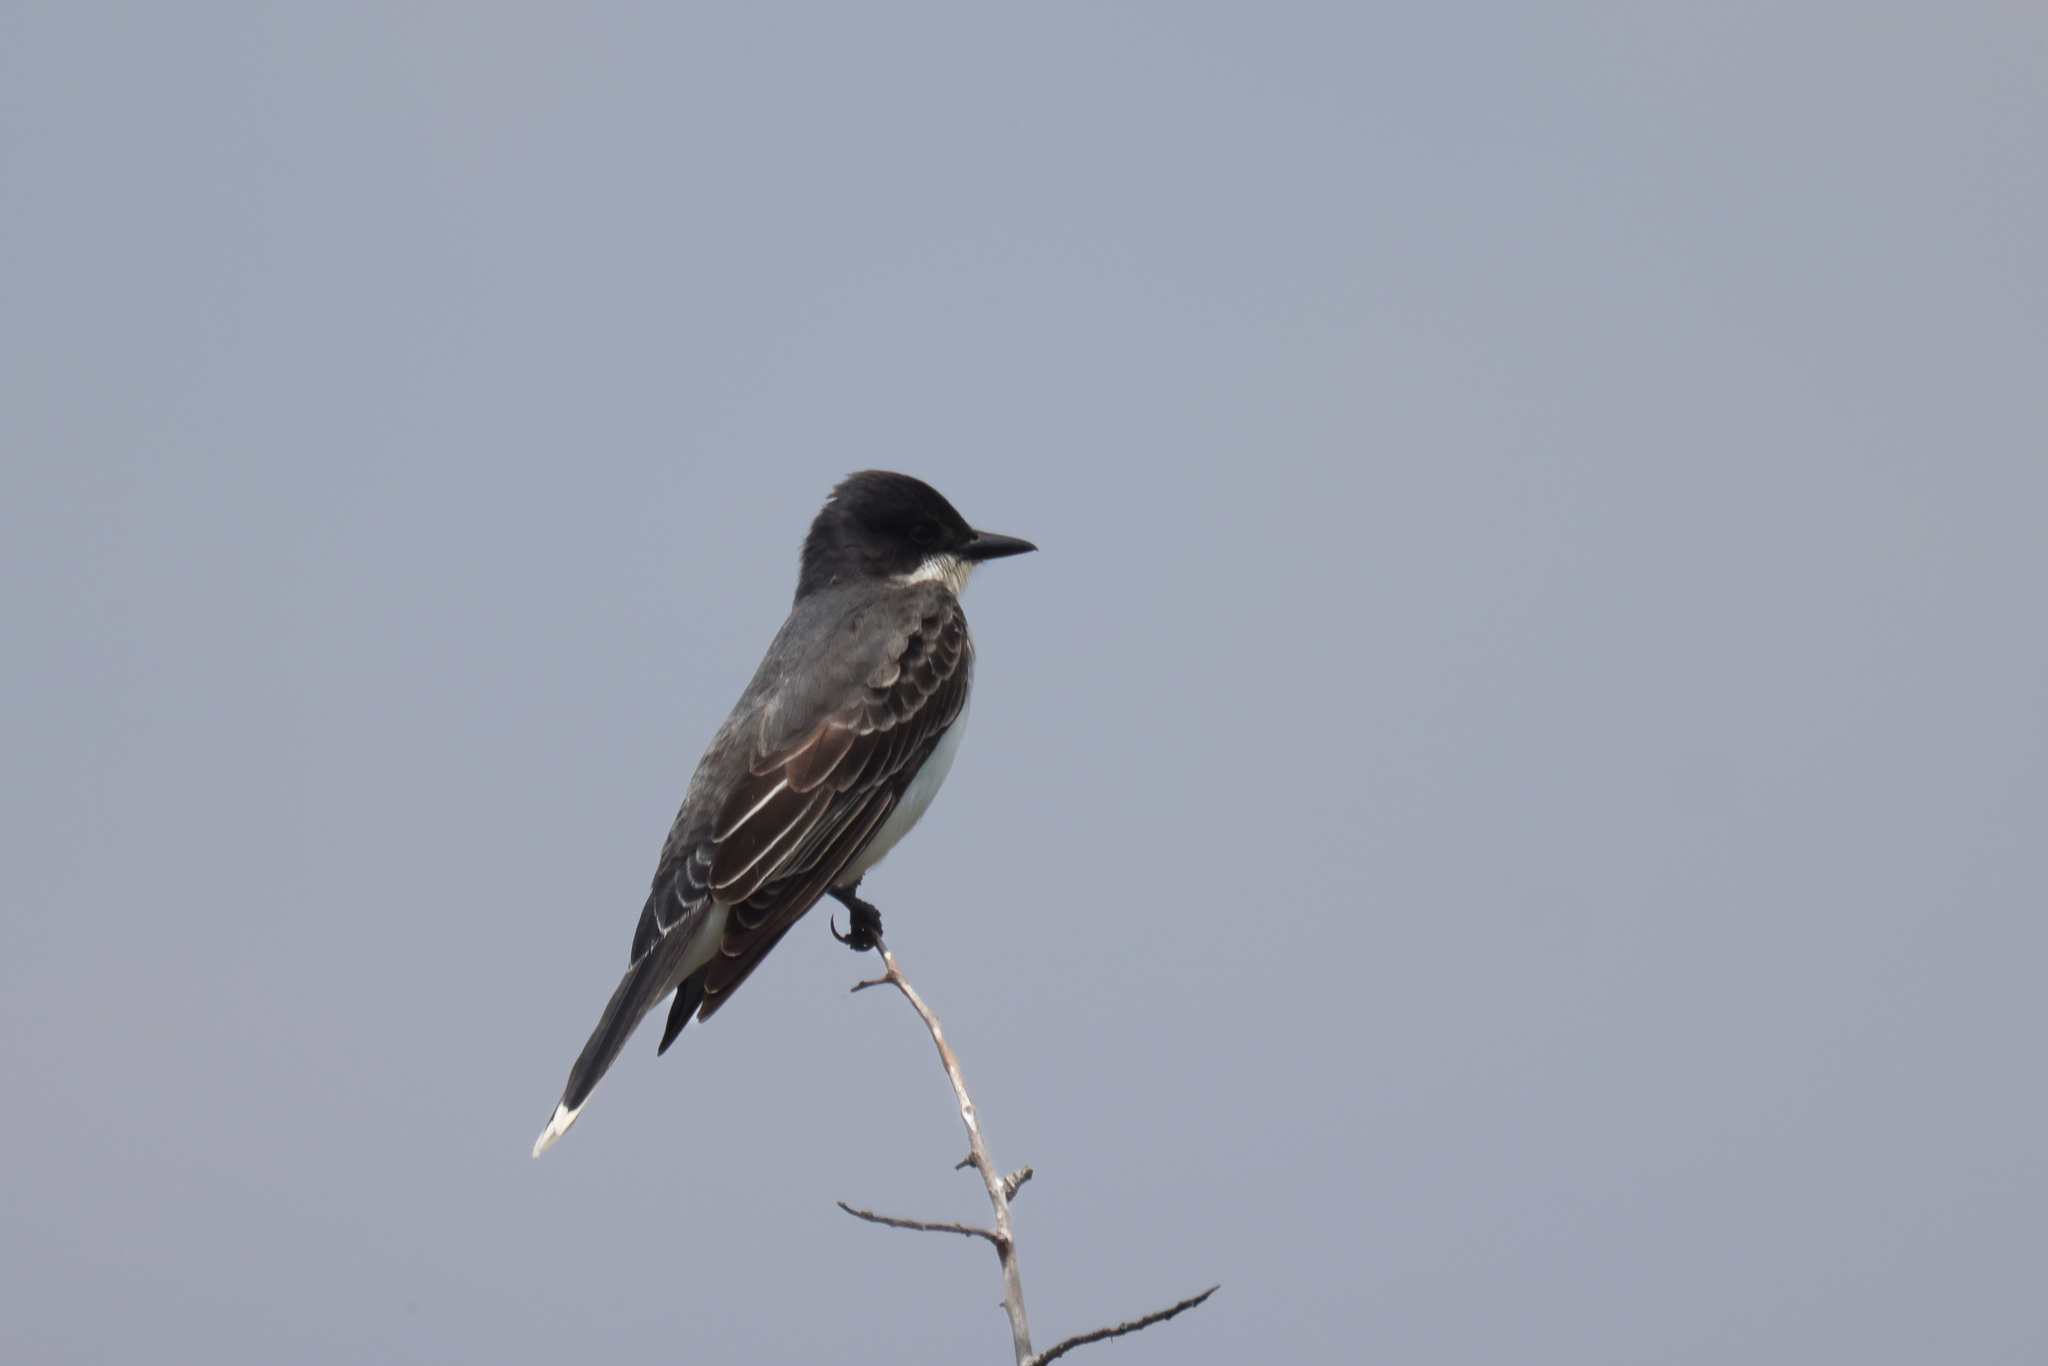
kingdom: Animalia
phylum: Chordata
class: Aves
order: Passeriformes
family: Tyrannidae
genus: Tyrannus
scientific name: Tyrannus tyrannus
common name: Eastern kingbird
